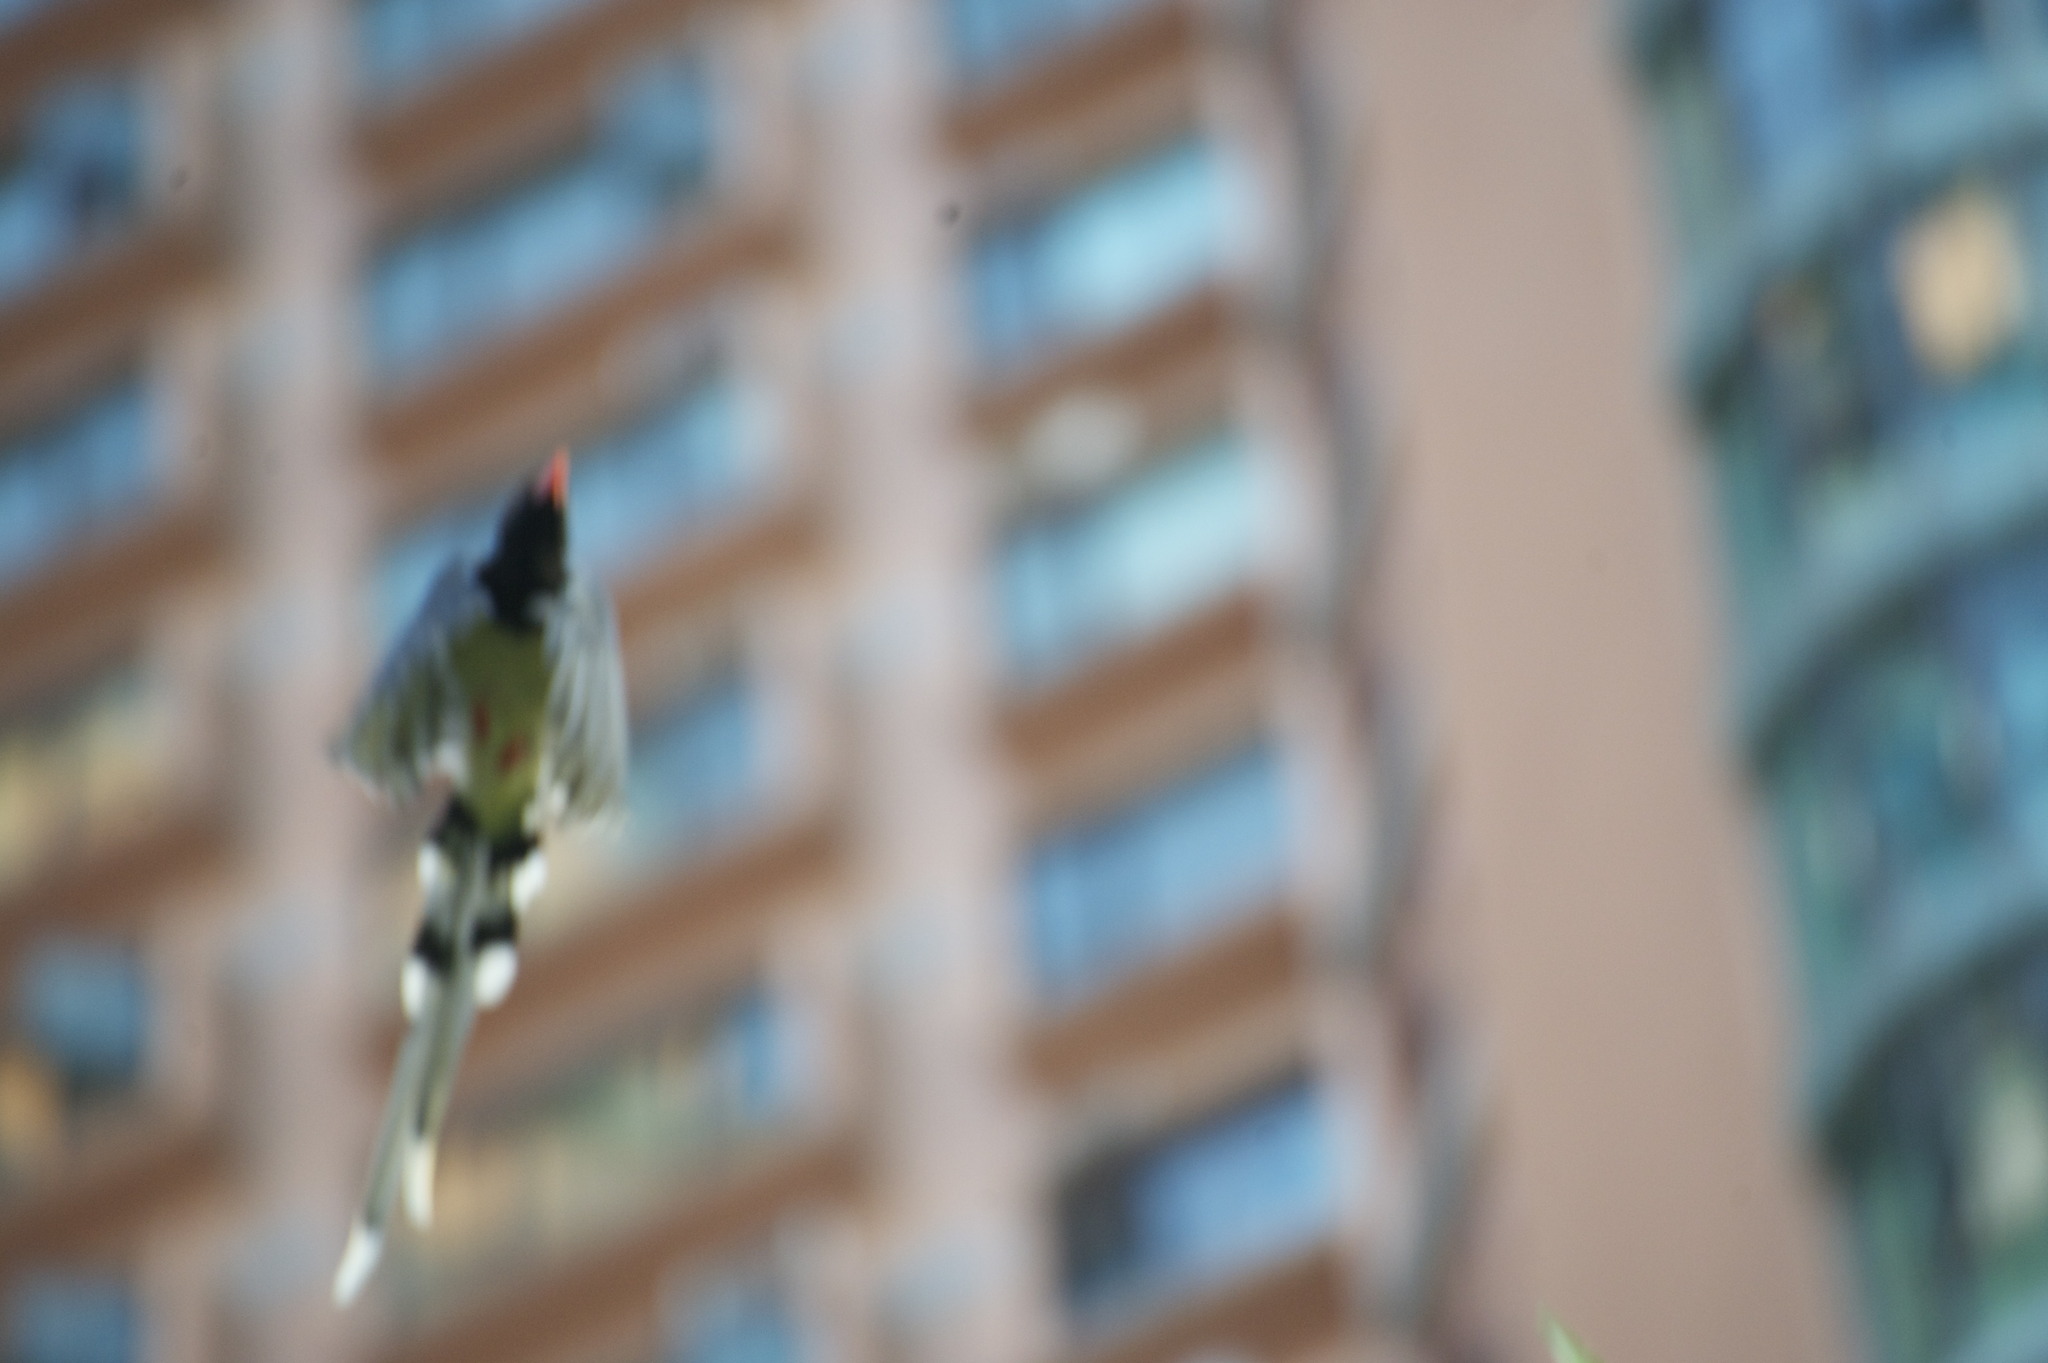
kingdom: Animalia
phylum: Chordata
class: Aves
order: Passeriformes
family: Corvidae
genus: Urocissa
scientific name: Urocissa erythroryncha
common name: Red-billed blue magpie
